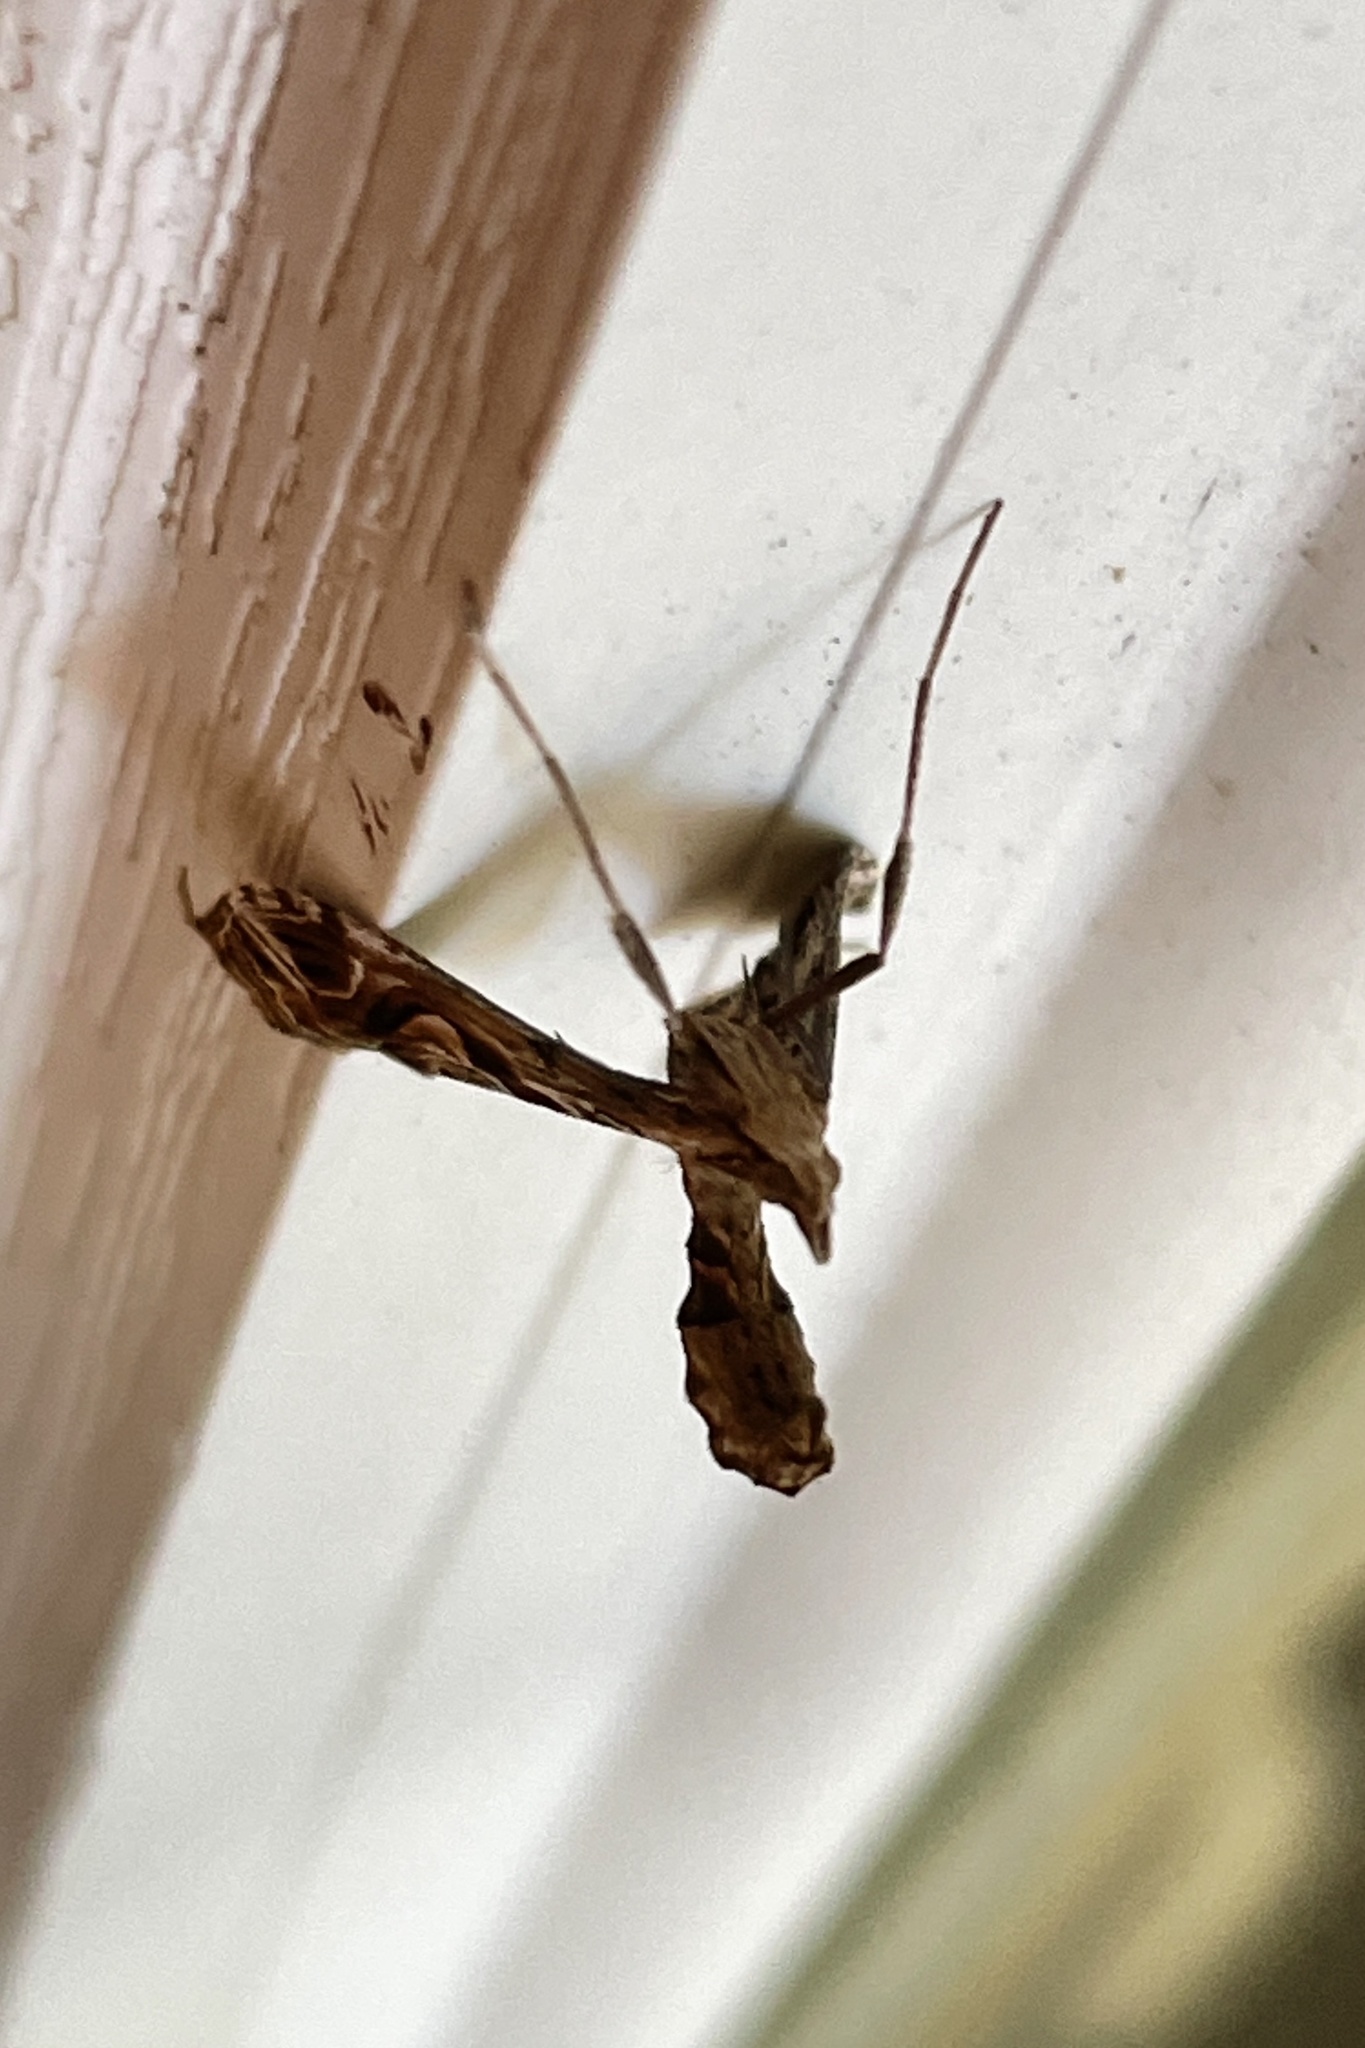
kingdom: Animalia
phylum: Arthropoda
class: Insecta
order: Lepidoptera
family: Crambidae
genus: Lineodes
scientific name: Lineodes integra
